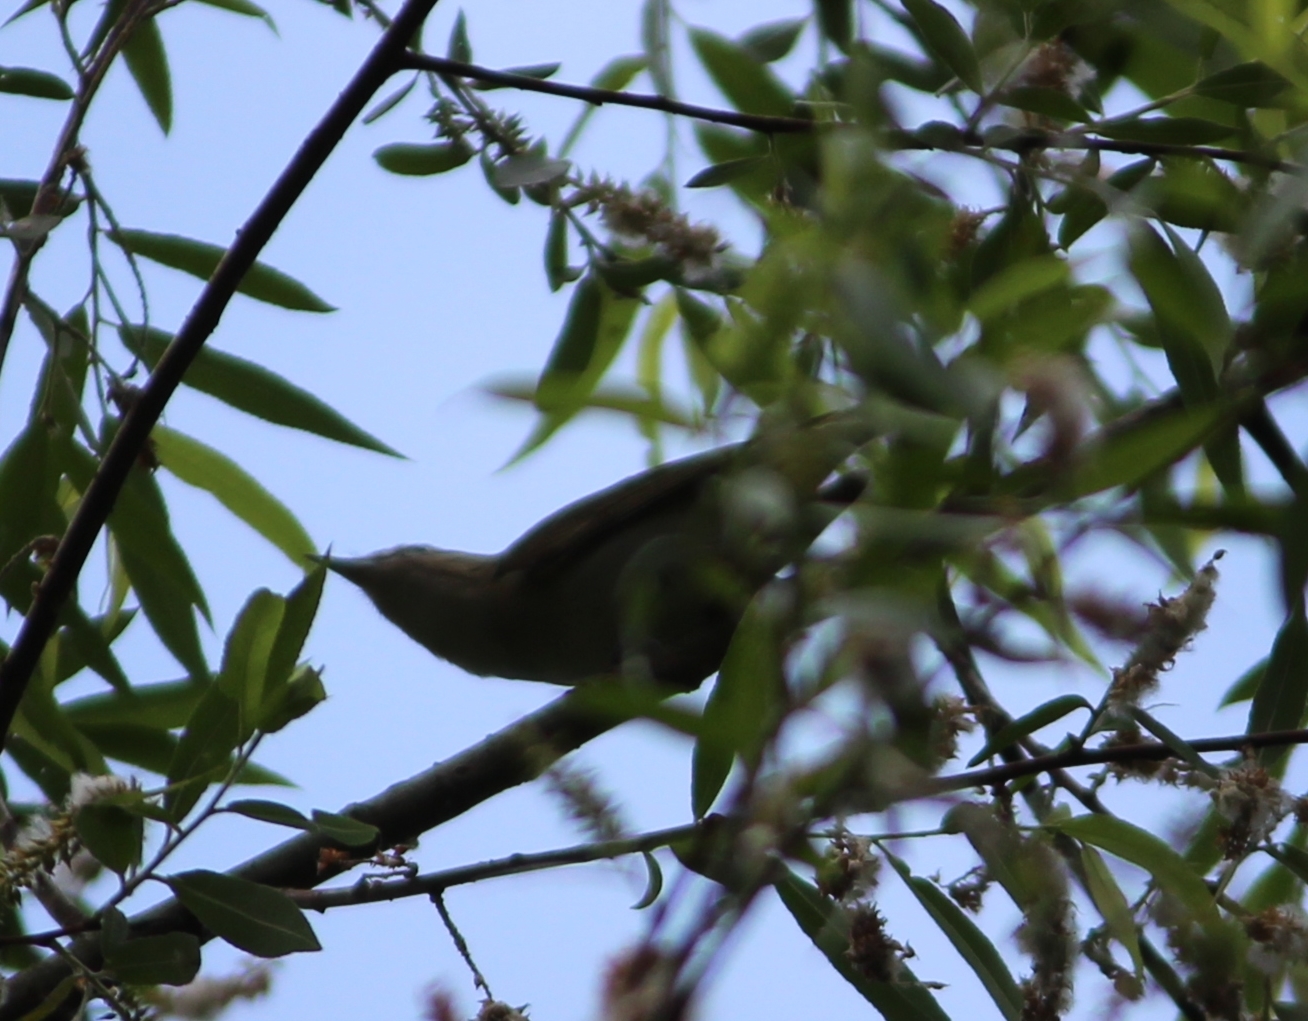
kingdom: Animalia
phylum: Chordata
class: Aves
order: Passeriformes
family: Vireonidae
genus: Vireo
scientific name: Vireo olivaceus
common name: Red-eyed vireo
